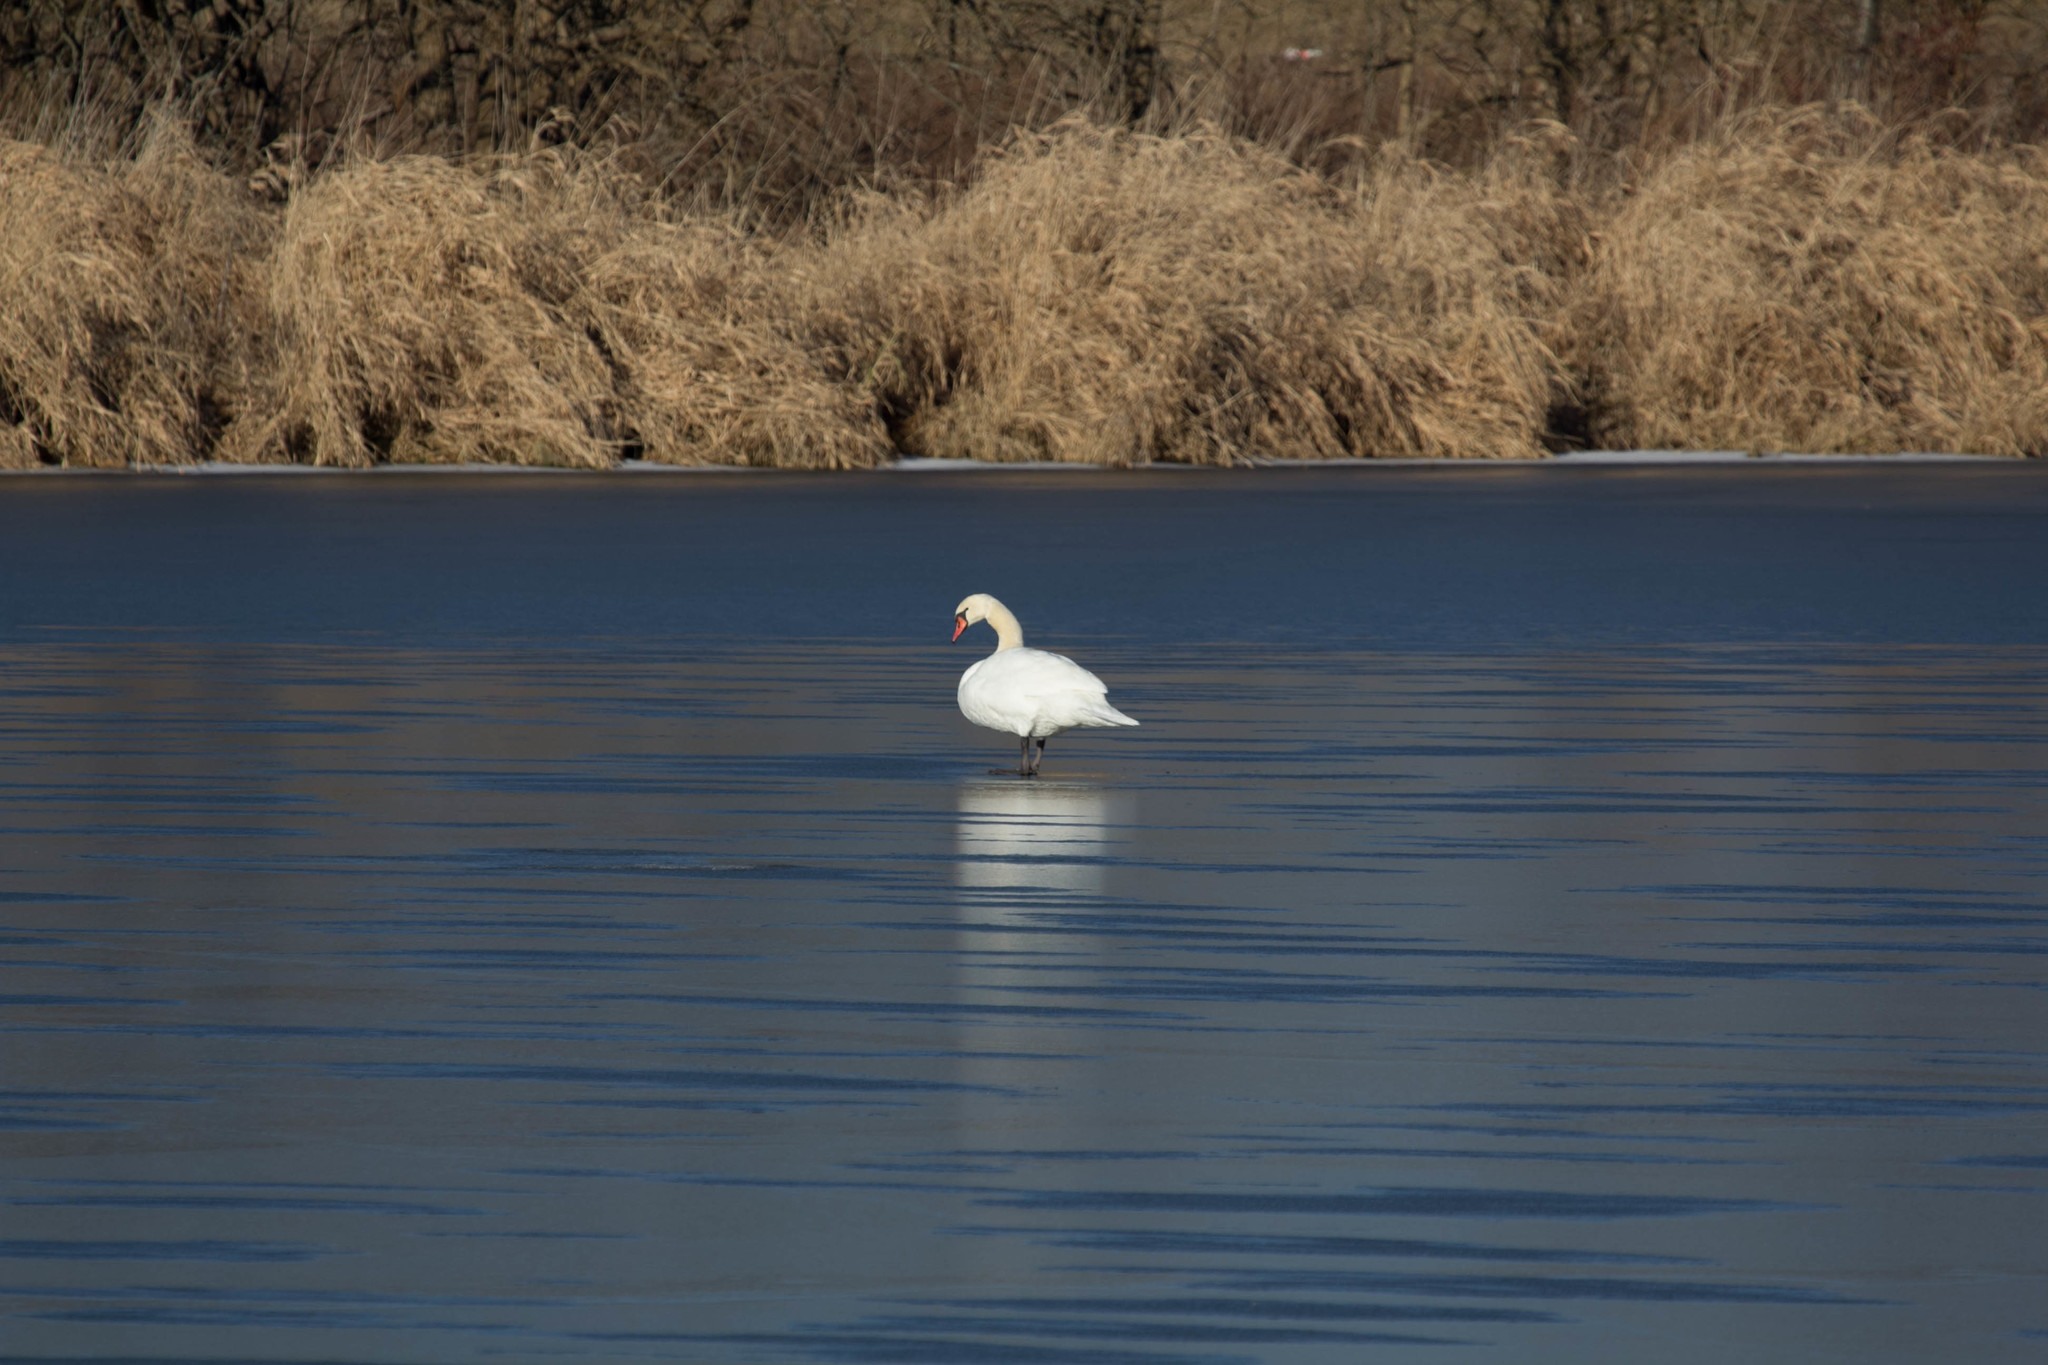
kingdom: Animalia
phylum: Chordata
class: Aves
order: Anseriformes
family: Anatidae
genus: Cygnus
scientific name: Cygnus olor
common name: Mute swan
